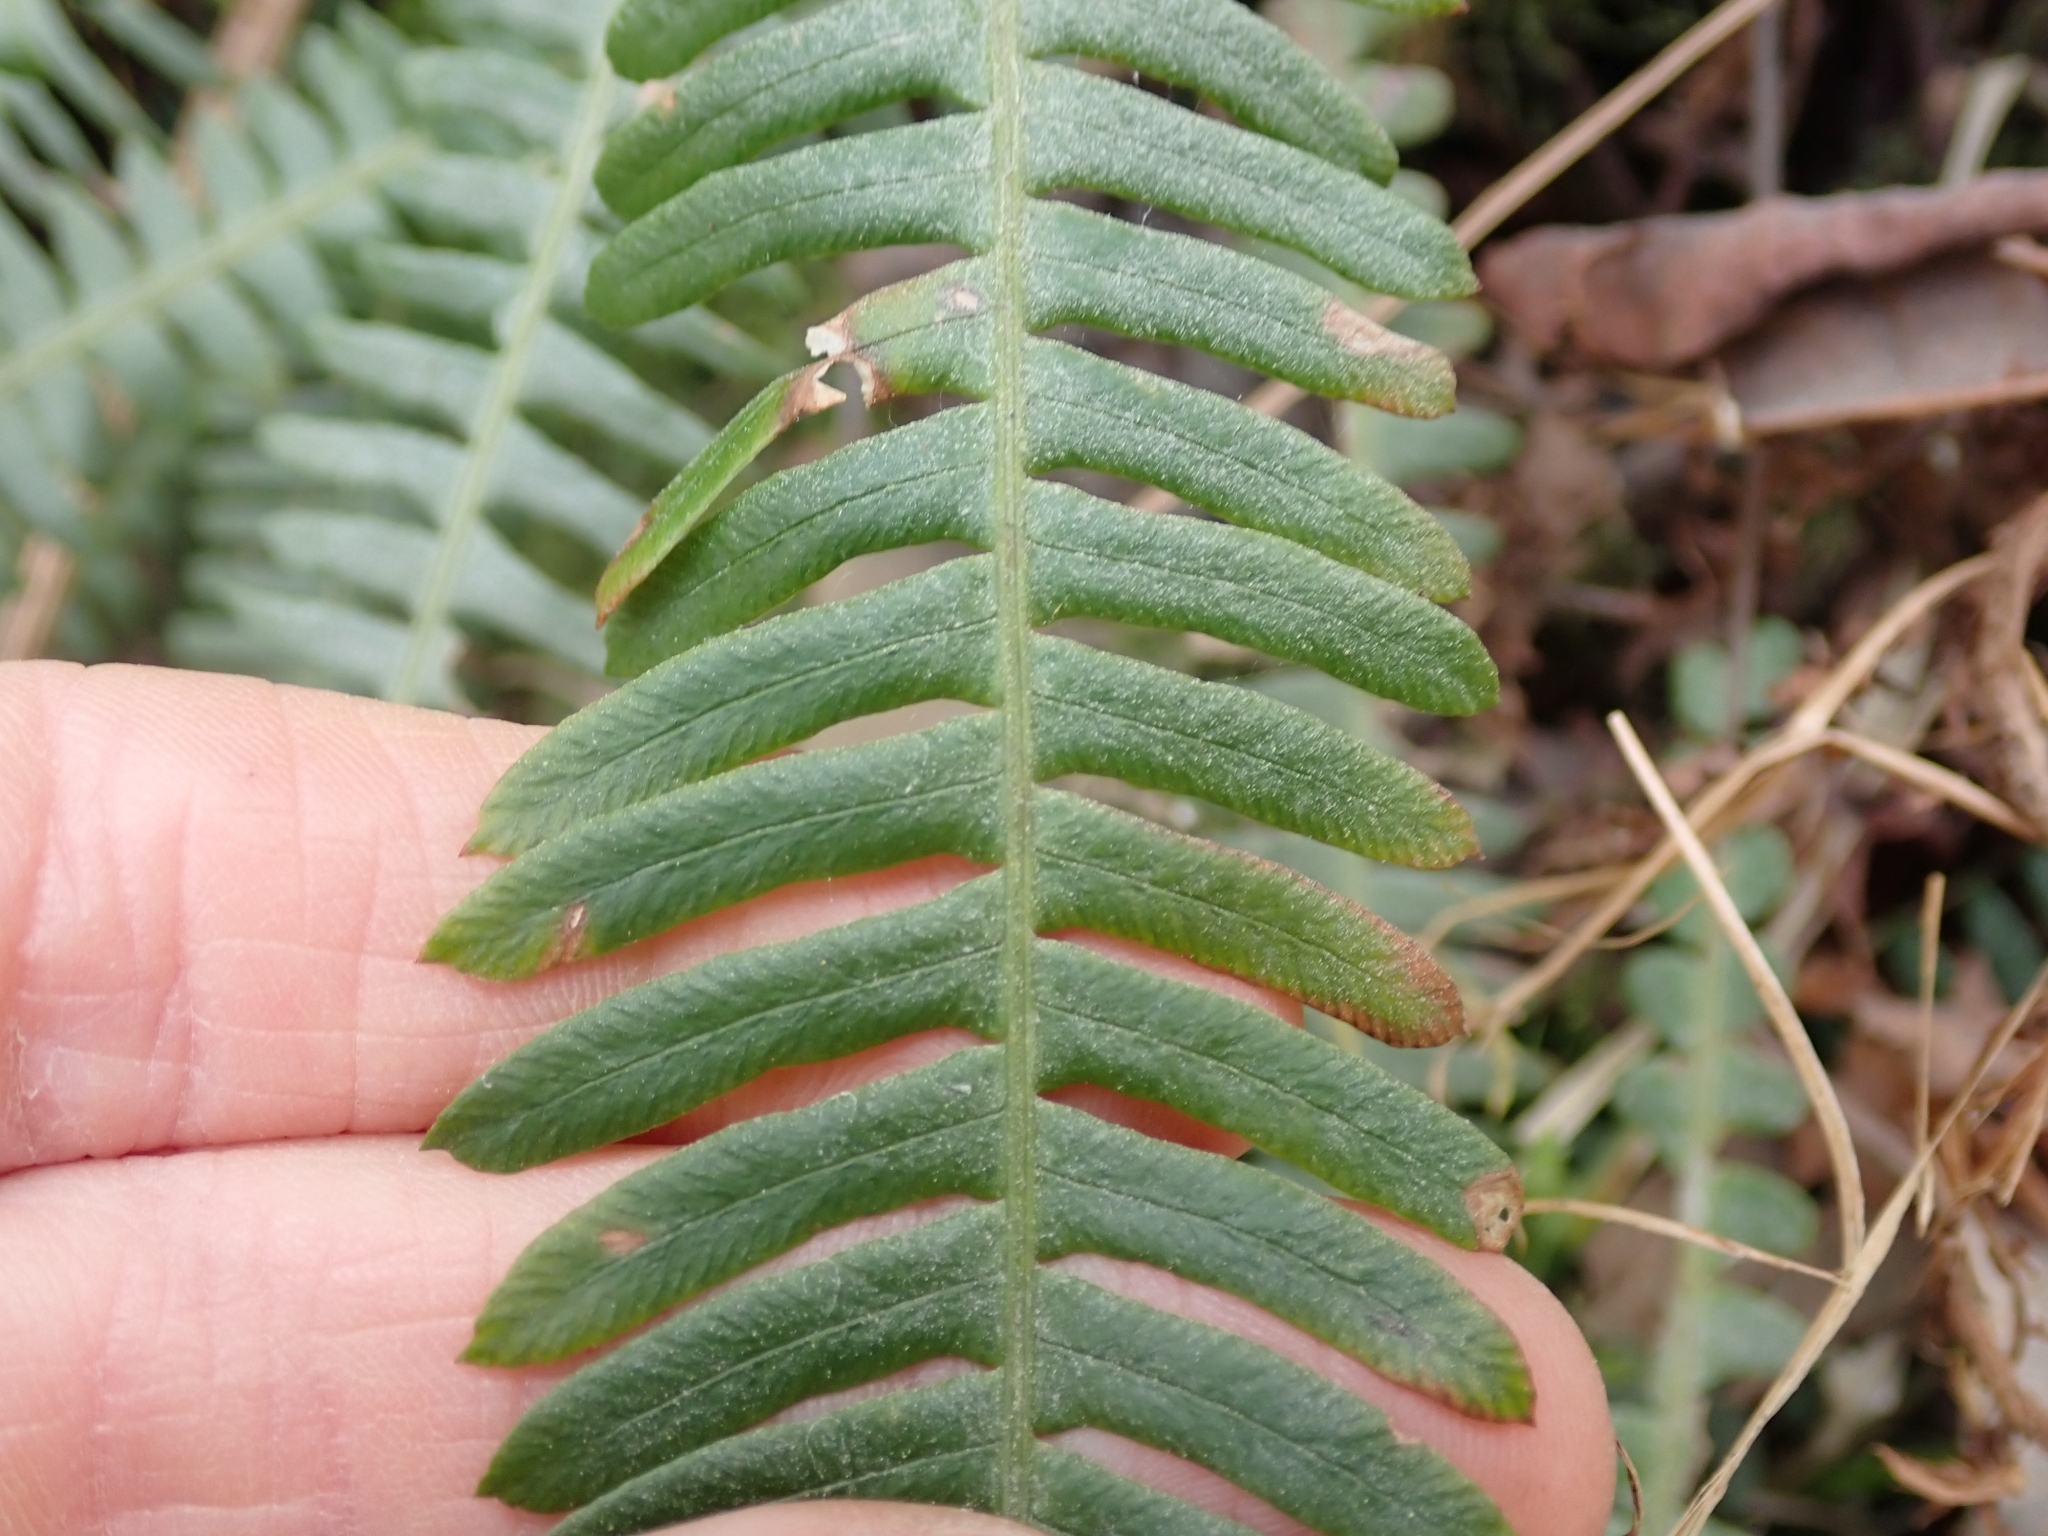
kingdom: Plantae
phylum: Tracheophyta
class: Polypodiopsida
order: Polypodiales
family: Blechnaceae
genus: Struthiopteris
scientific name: Struthiopteris spicant
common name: Deer fern
